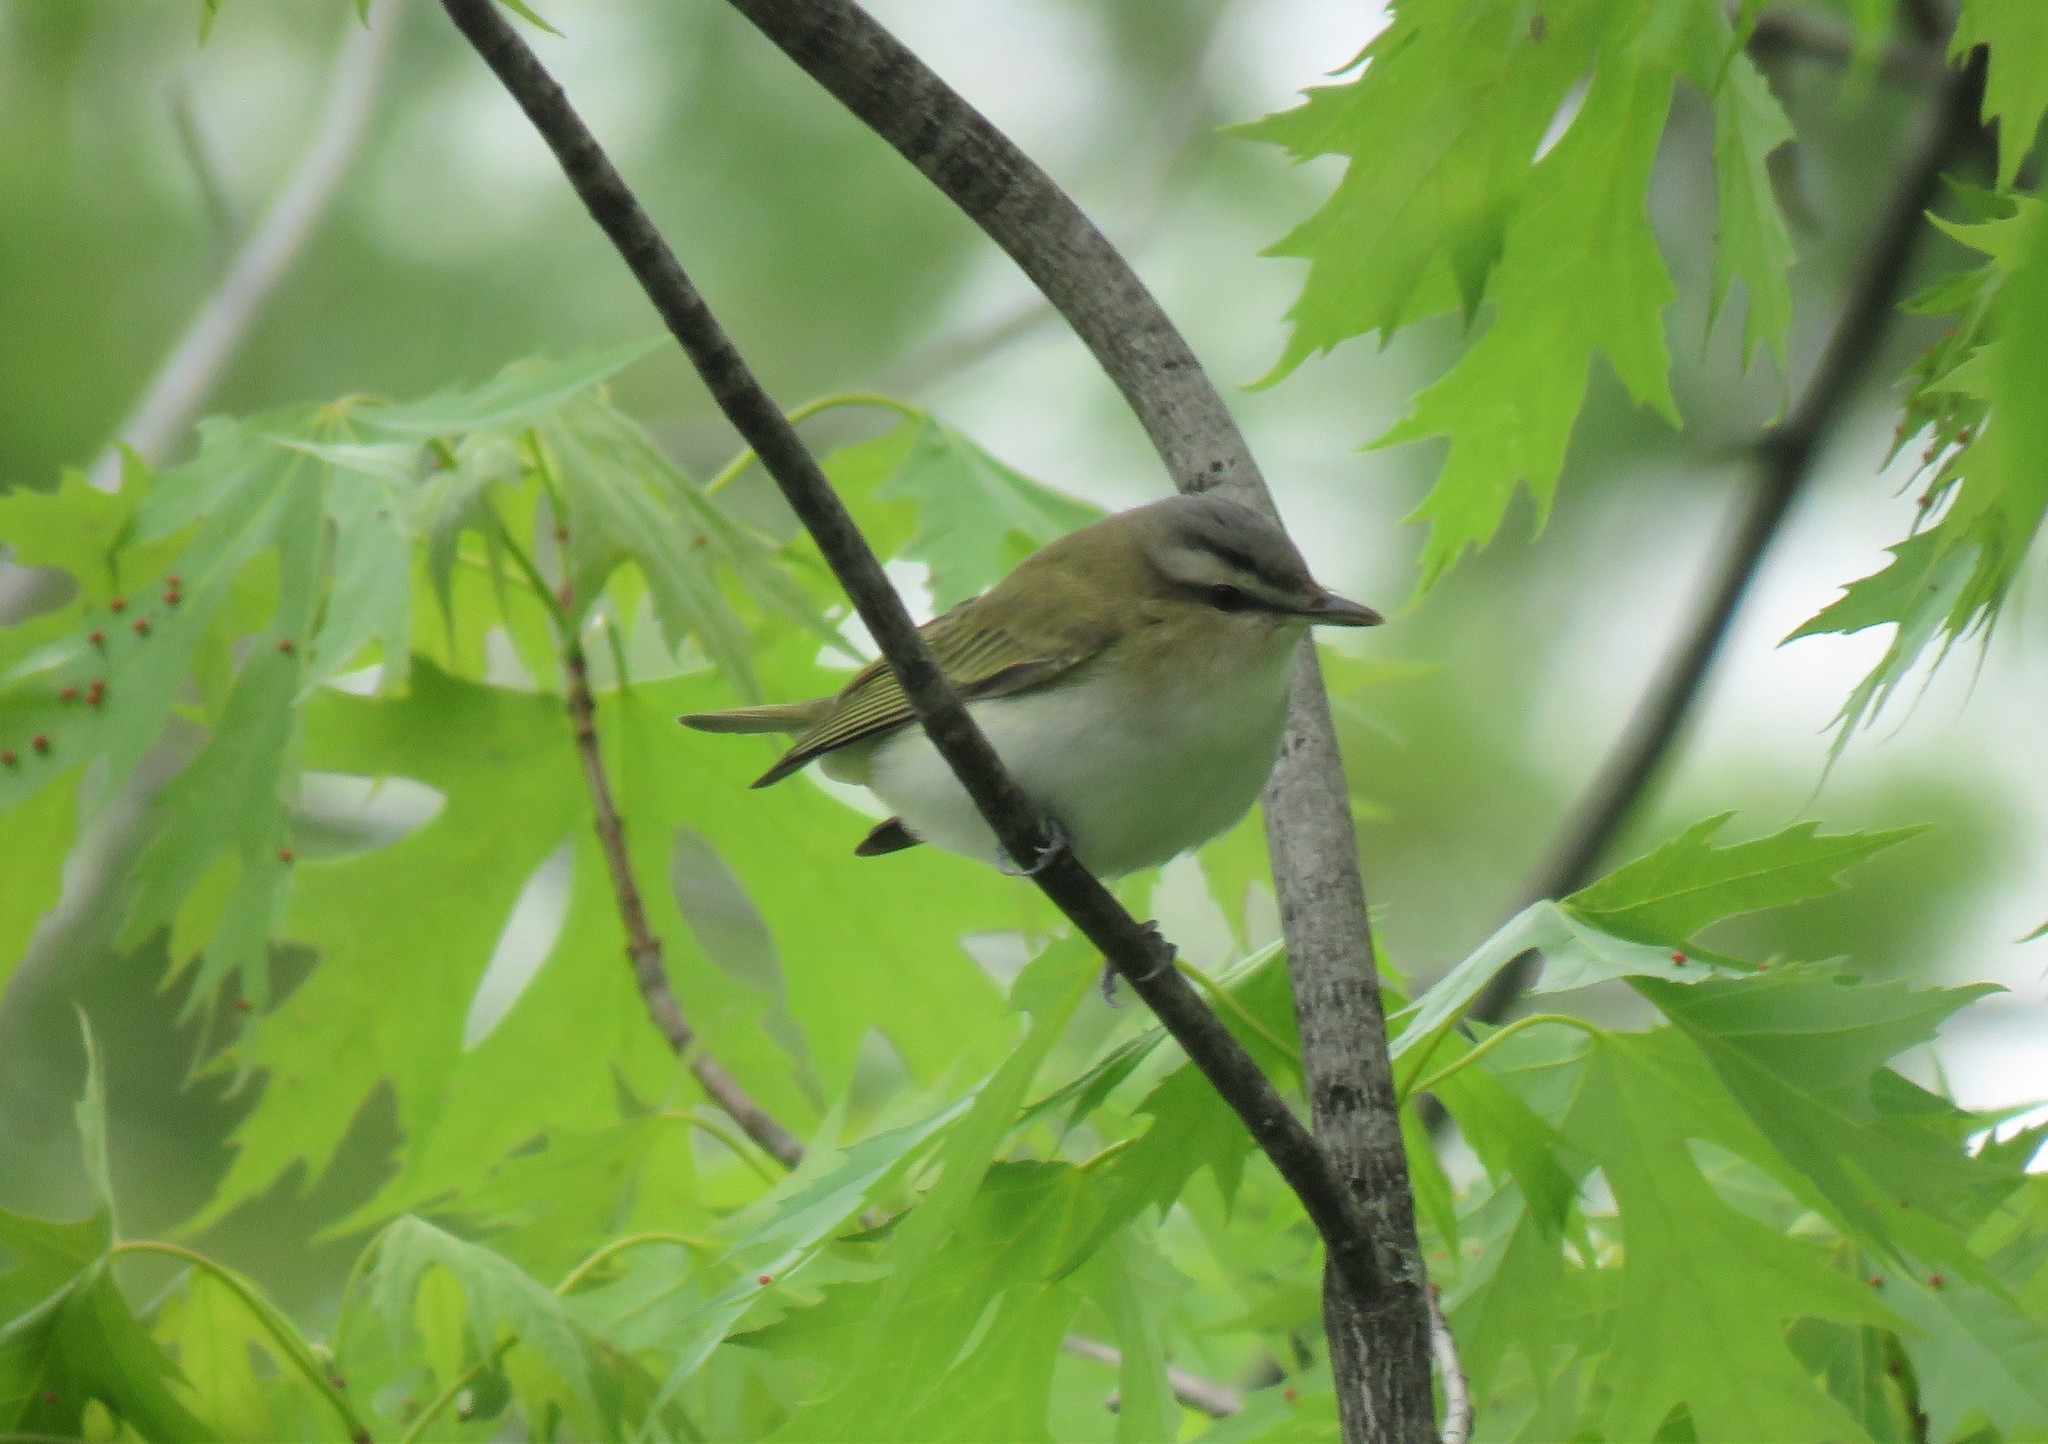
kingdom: Animalia
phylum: Chordata
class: Aves
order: Passeriformes
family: Vireonidae
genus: Vireo
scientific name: Vireo olivaceus
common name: Red-eyed vireo
